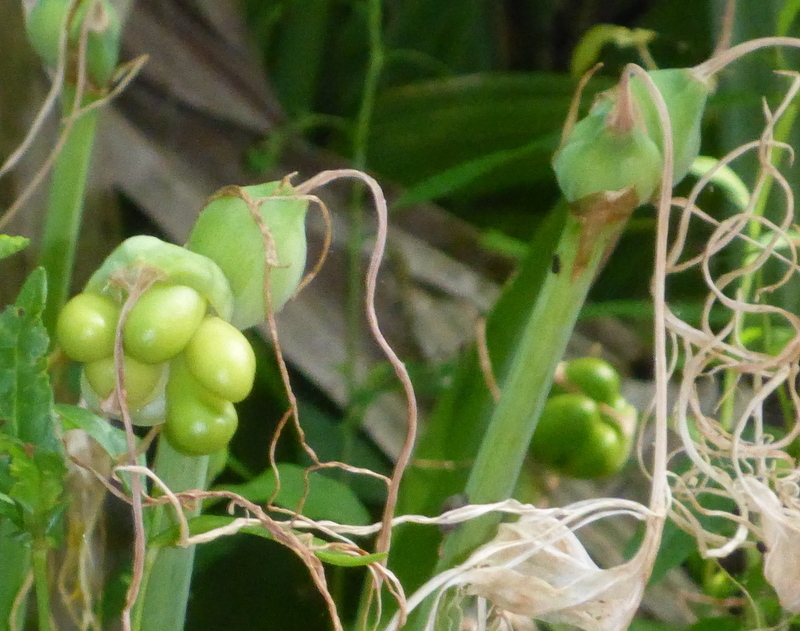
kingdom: Plantae
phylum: Tracheophyta
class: Liliopsida
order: Asparagales
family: Amaryllidaceae
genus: Hymenocallis
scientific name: Hymenocallis franklinensis
